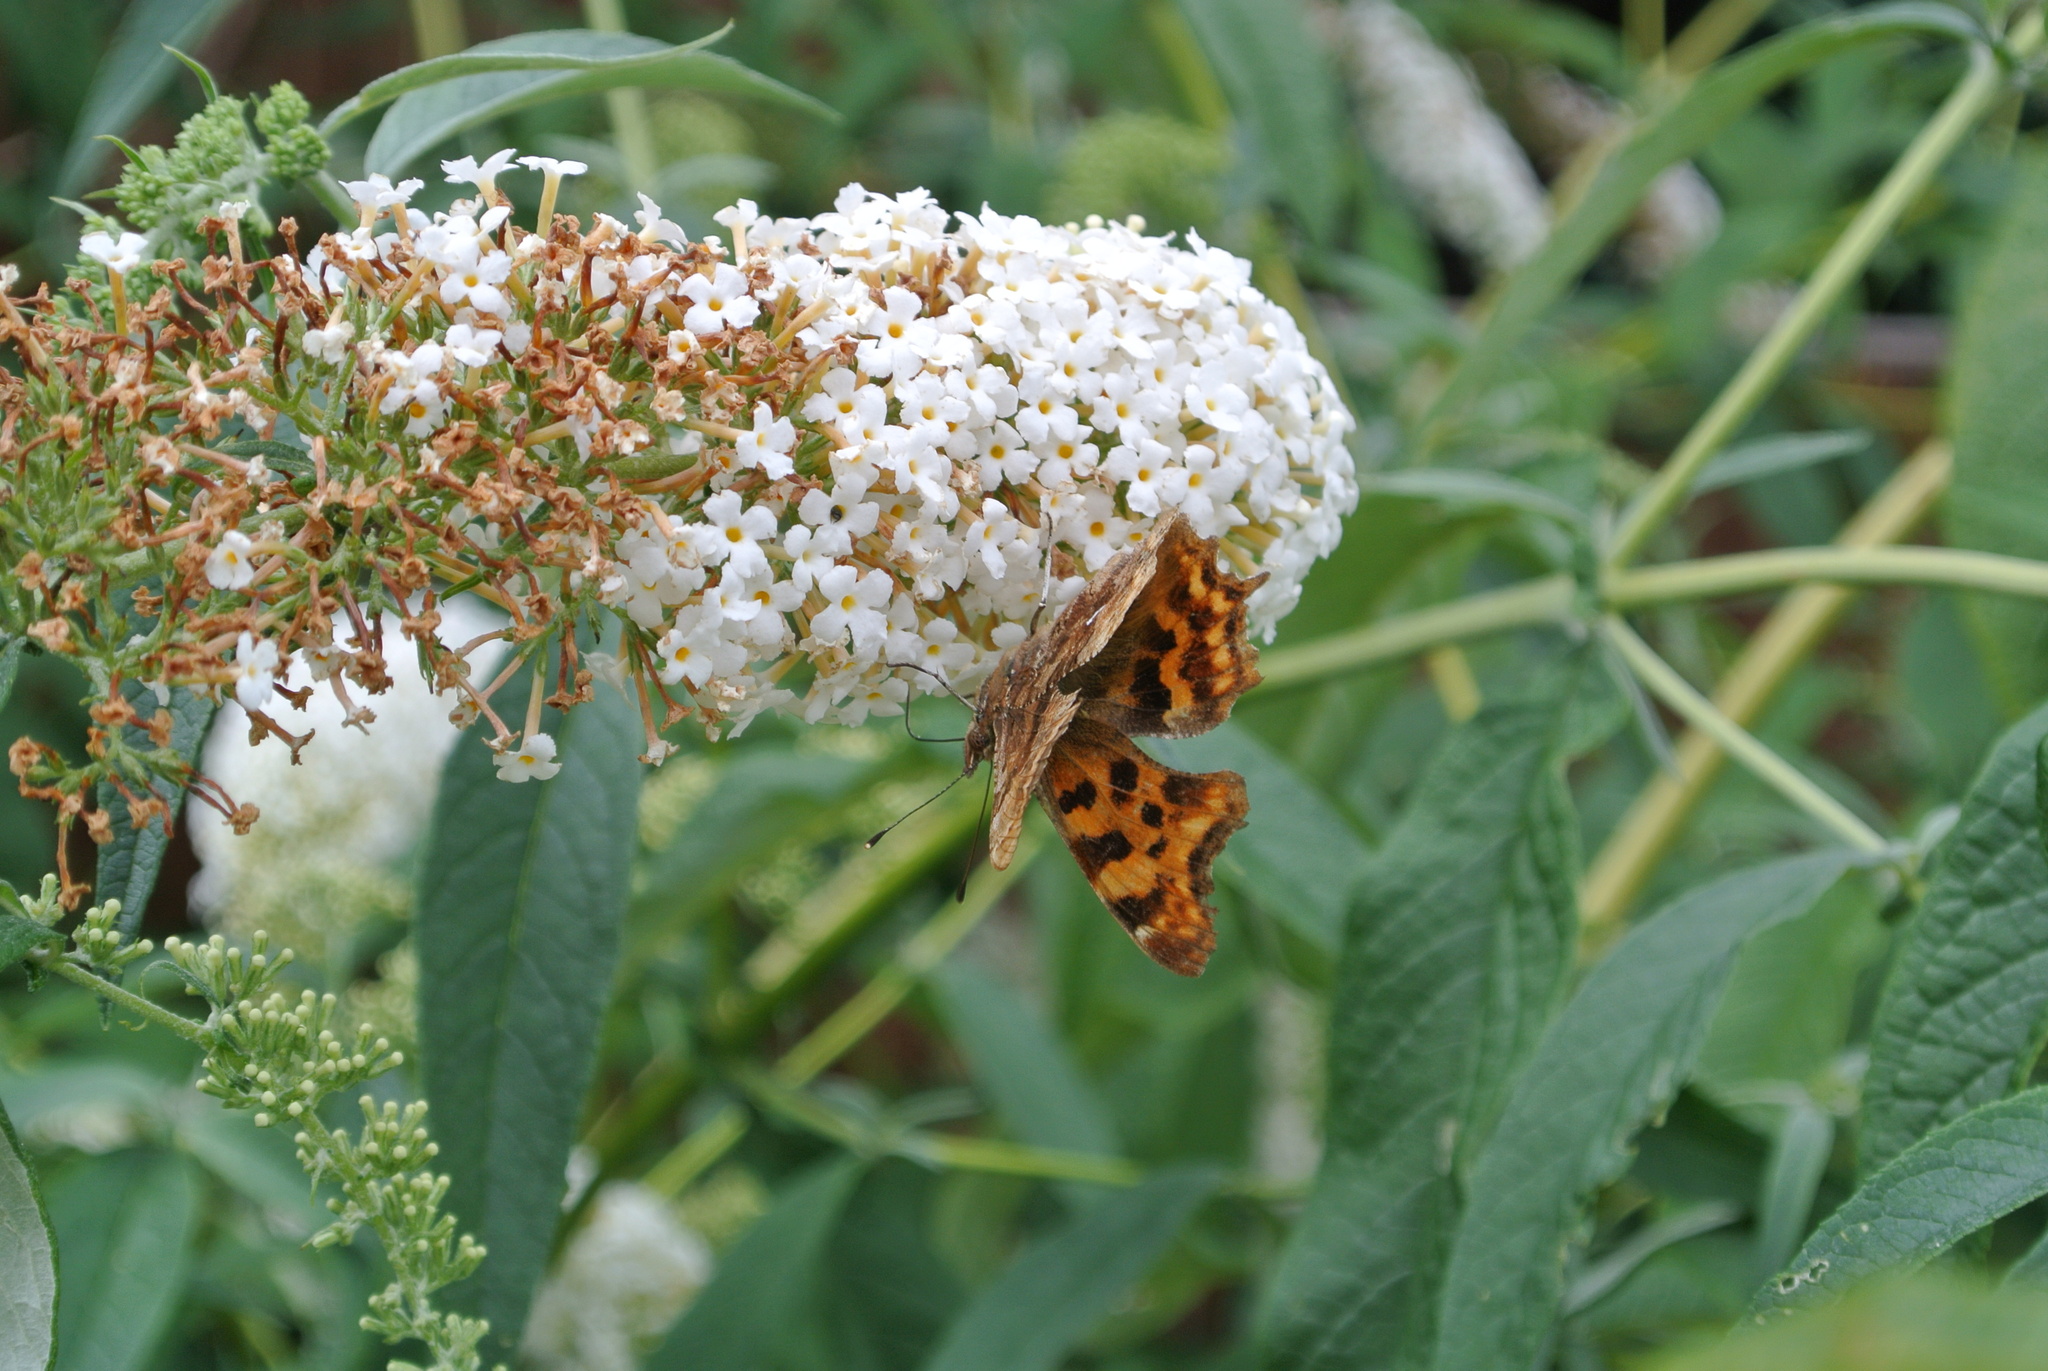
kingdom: Animalia
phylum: Arthropoda
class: Insecta
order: Lepidoptera
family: Nymphalidae
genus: Polygonia
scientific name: Polygonia c-album
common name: Comma
